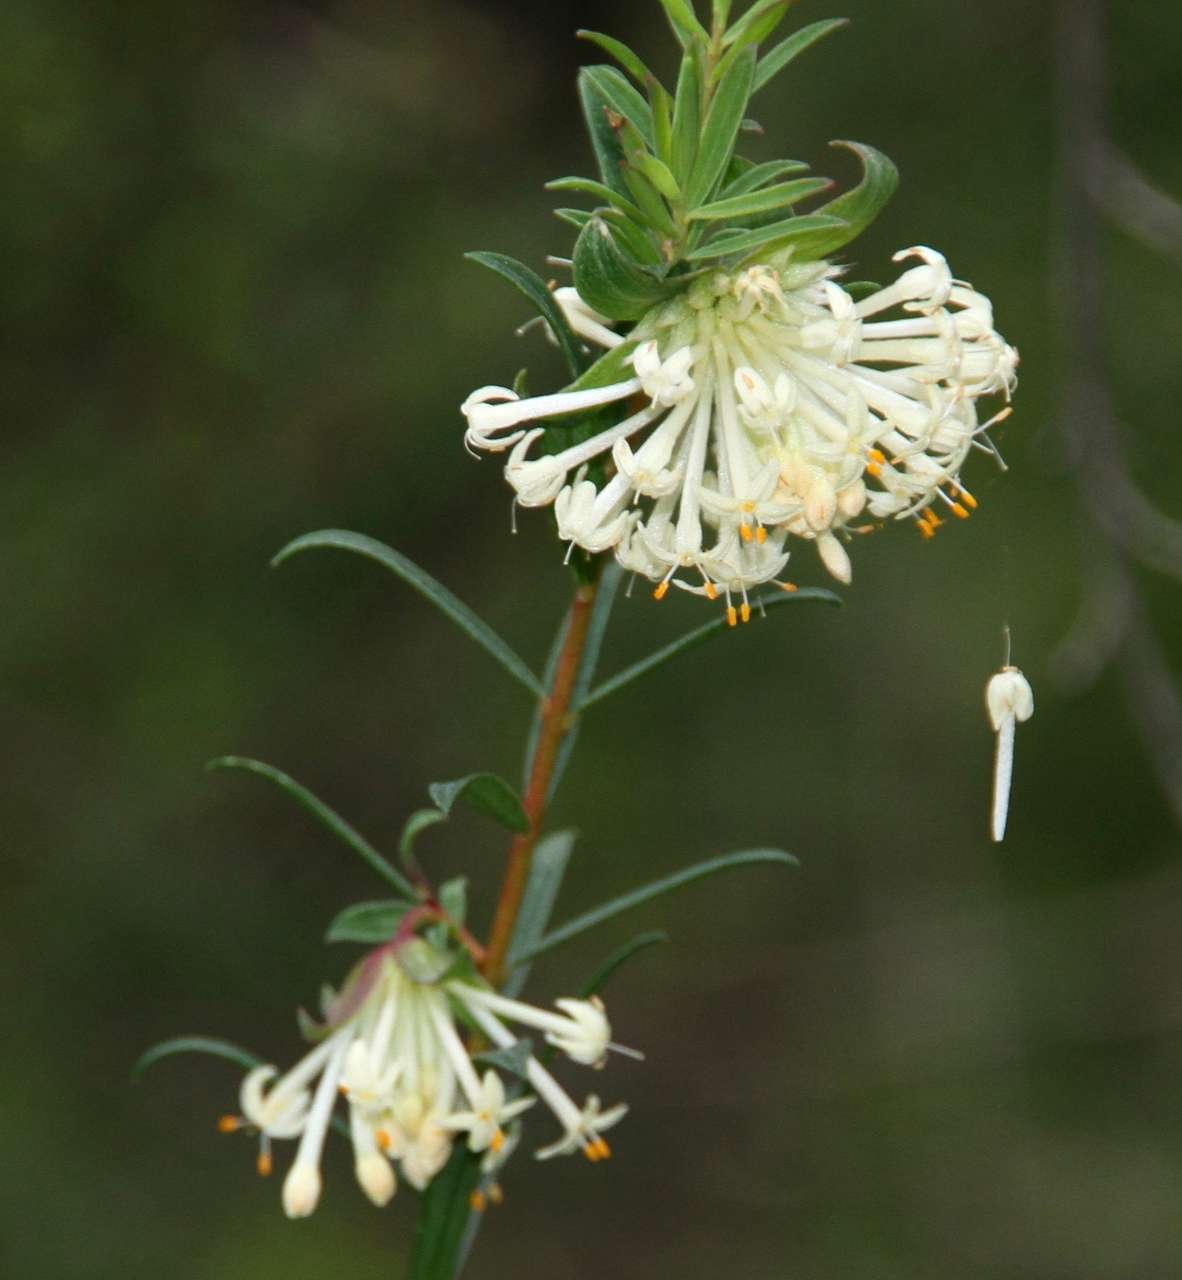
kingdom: Plantae
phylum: Tracheophyta
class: Magnoliopsida
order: Malvales
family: Thymelaeaceae
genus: Pimelea
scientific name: Pimelea linifolia
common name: Queen-of-the-bush
